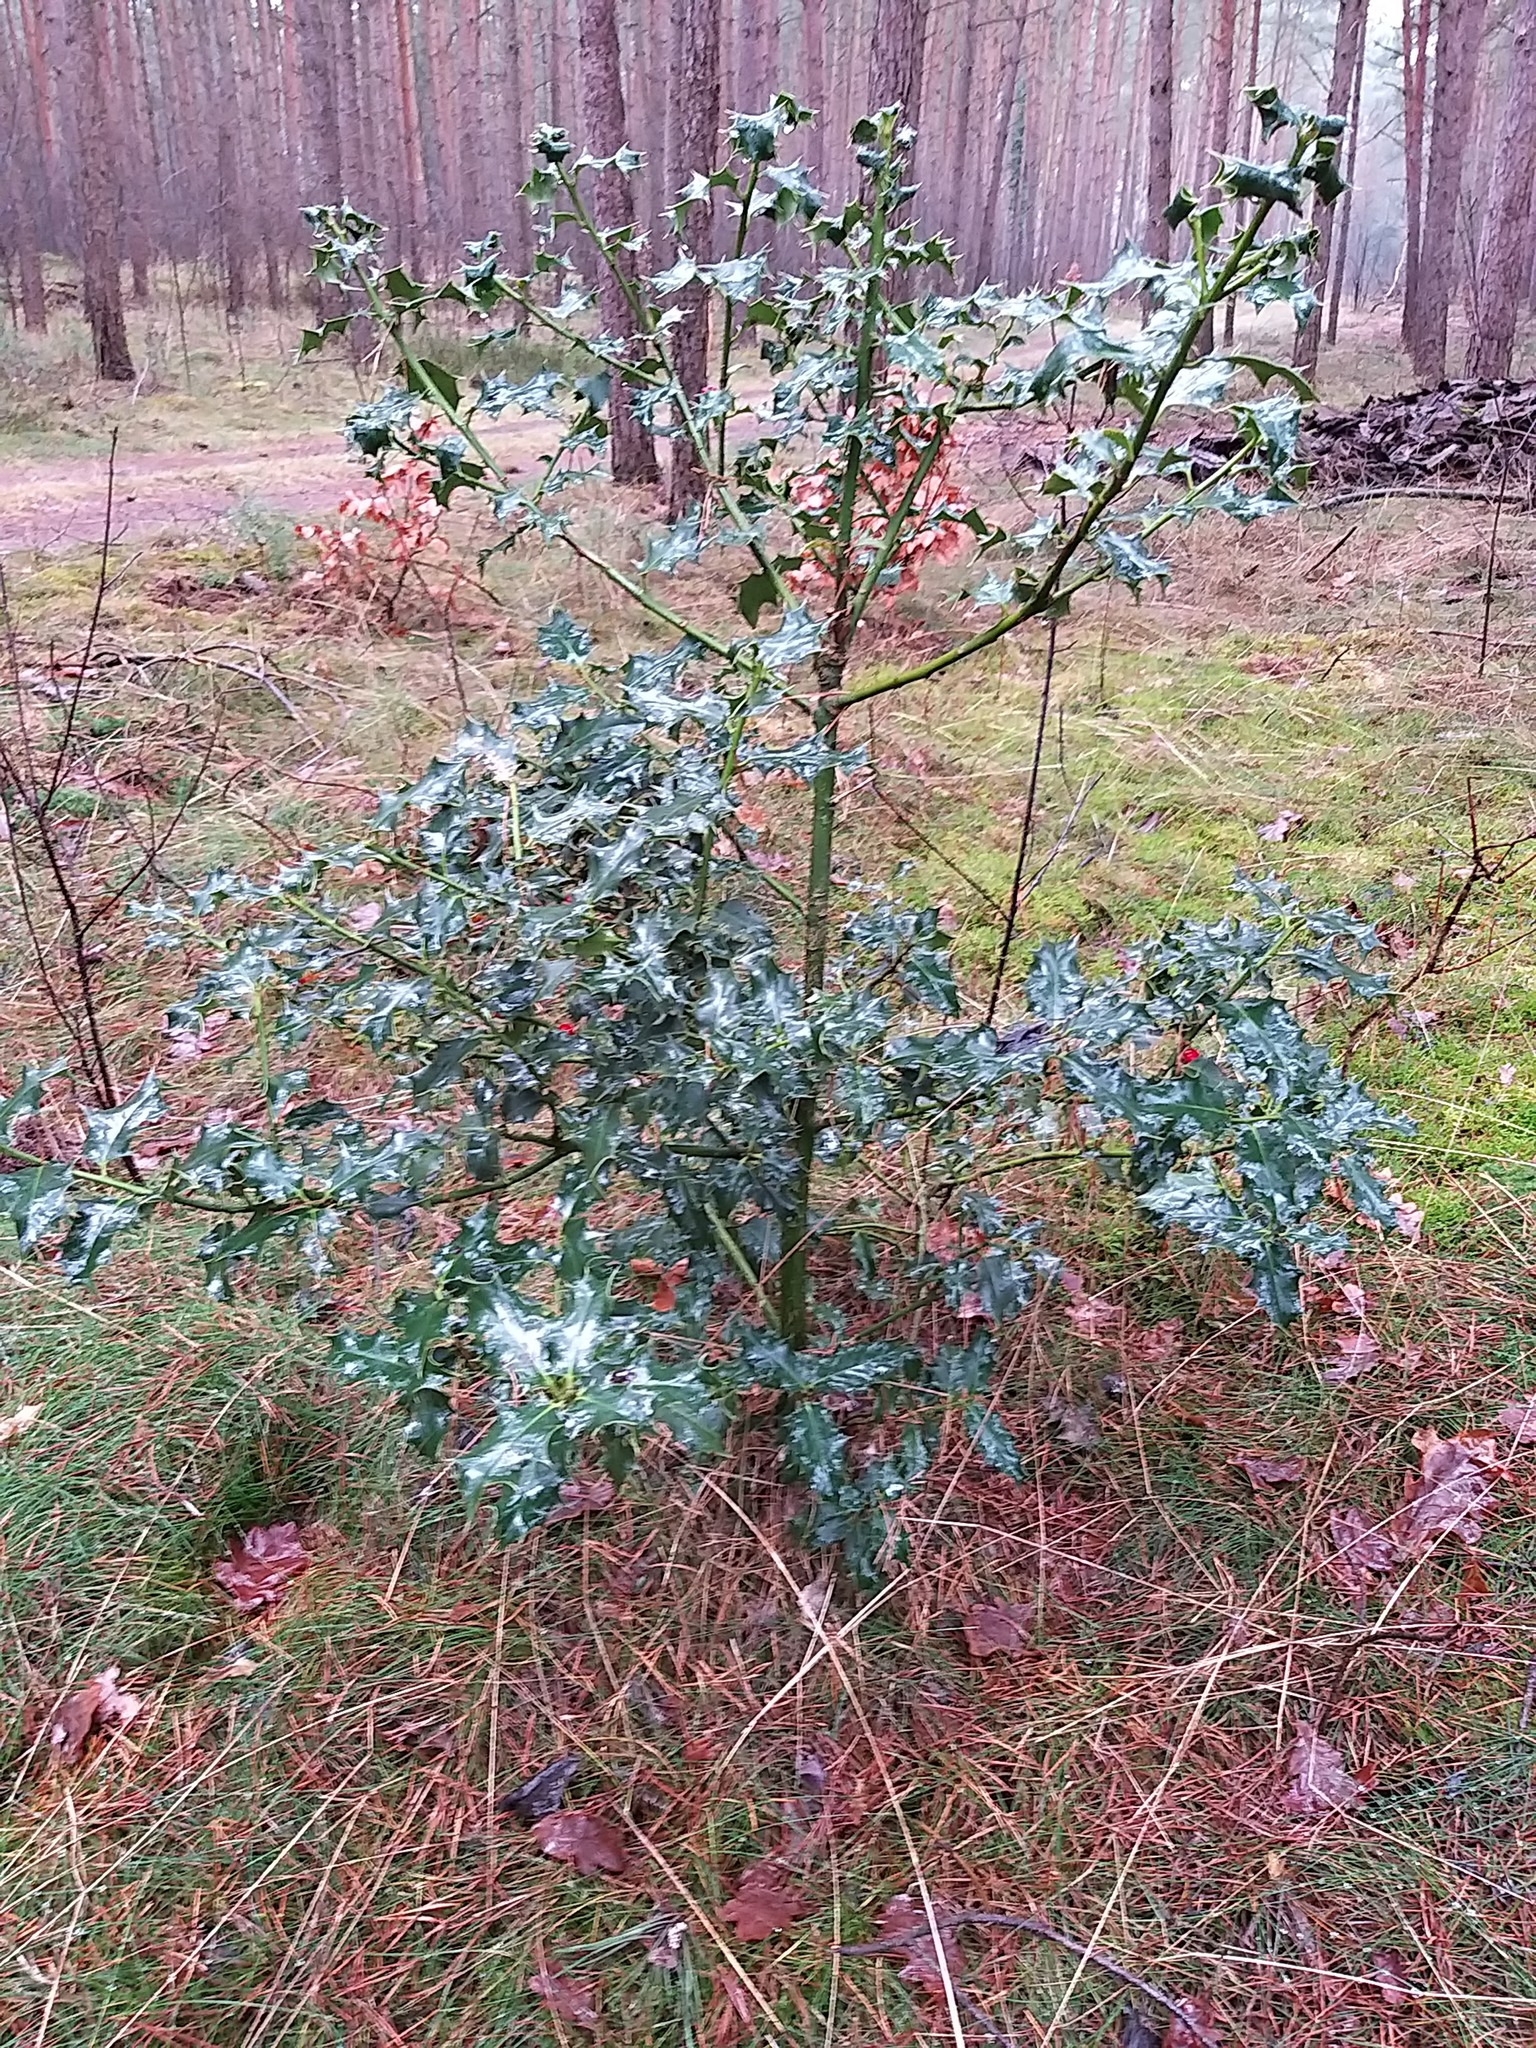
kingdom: Plantae
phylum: Tracheophyta
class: Magnoliopsida
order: Aquifoliales
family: Aquifoliaceae
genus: Ilex
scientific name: Ilex aquifolium
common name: English holly
